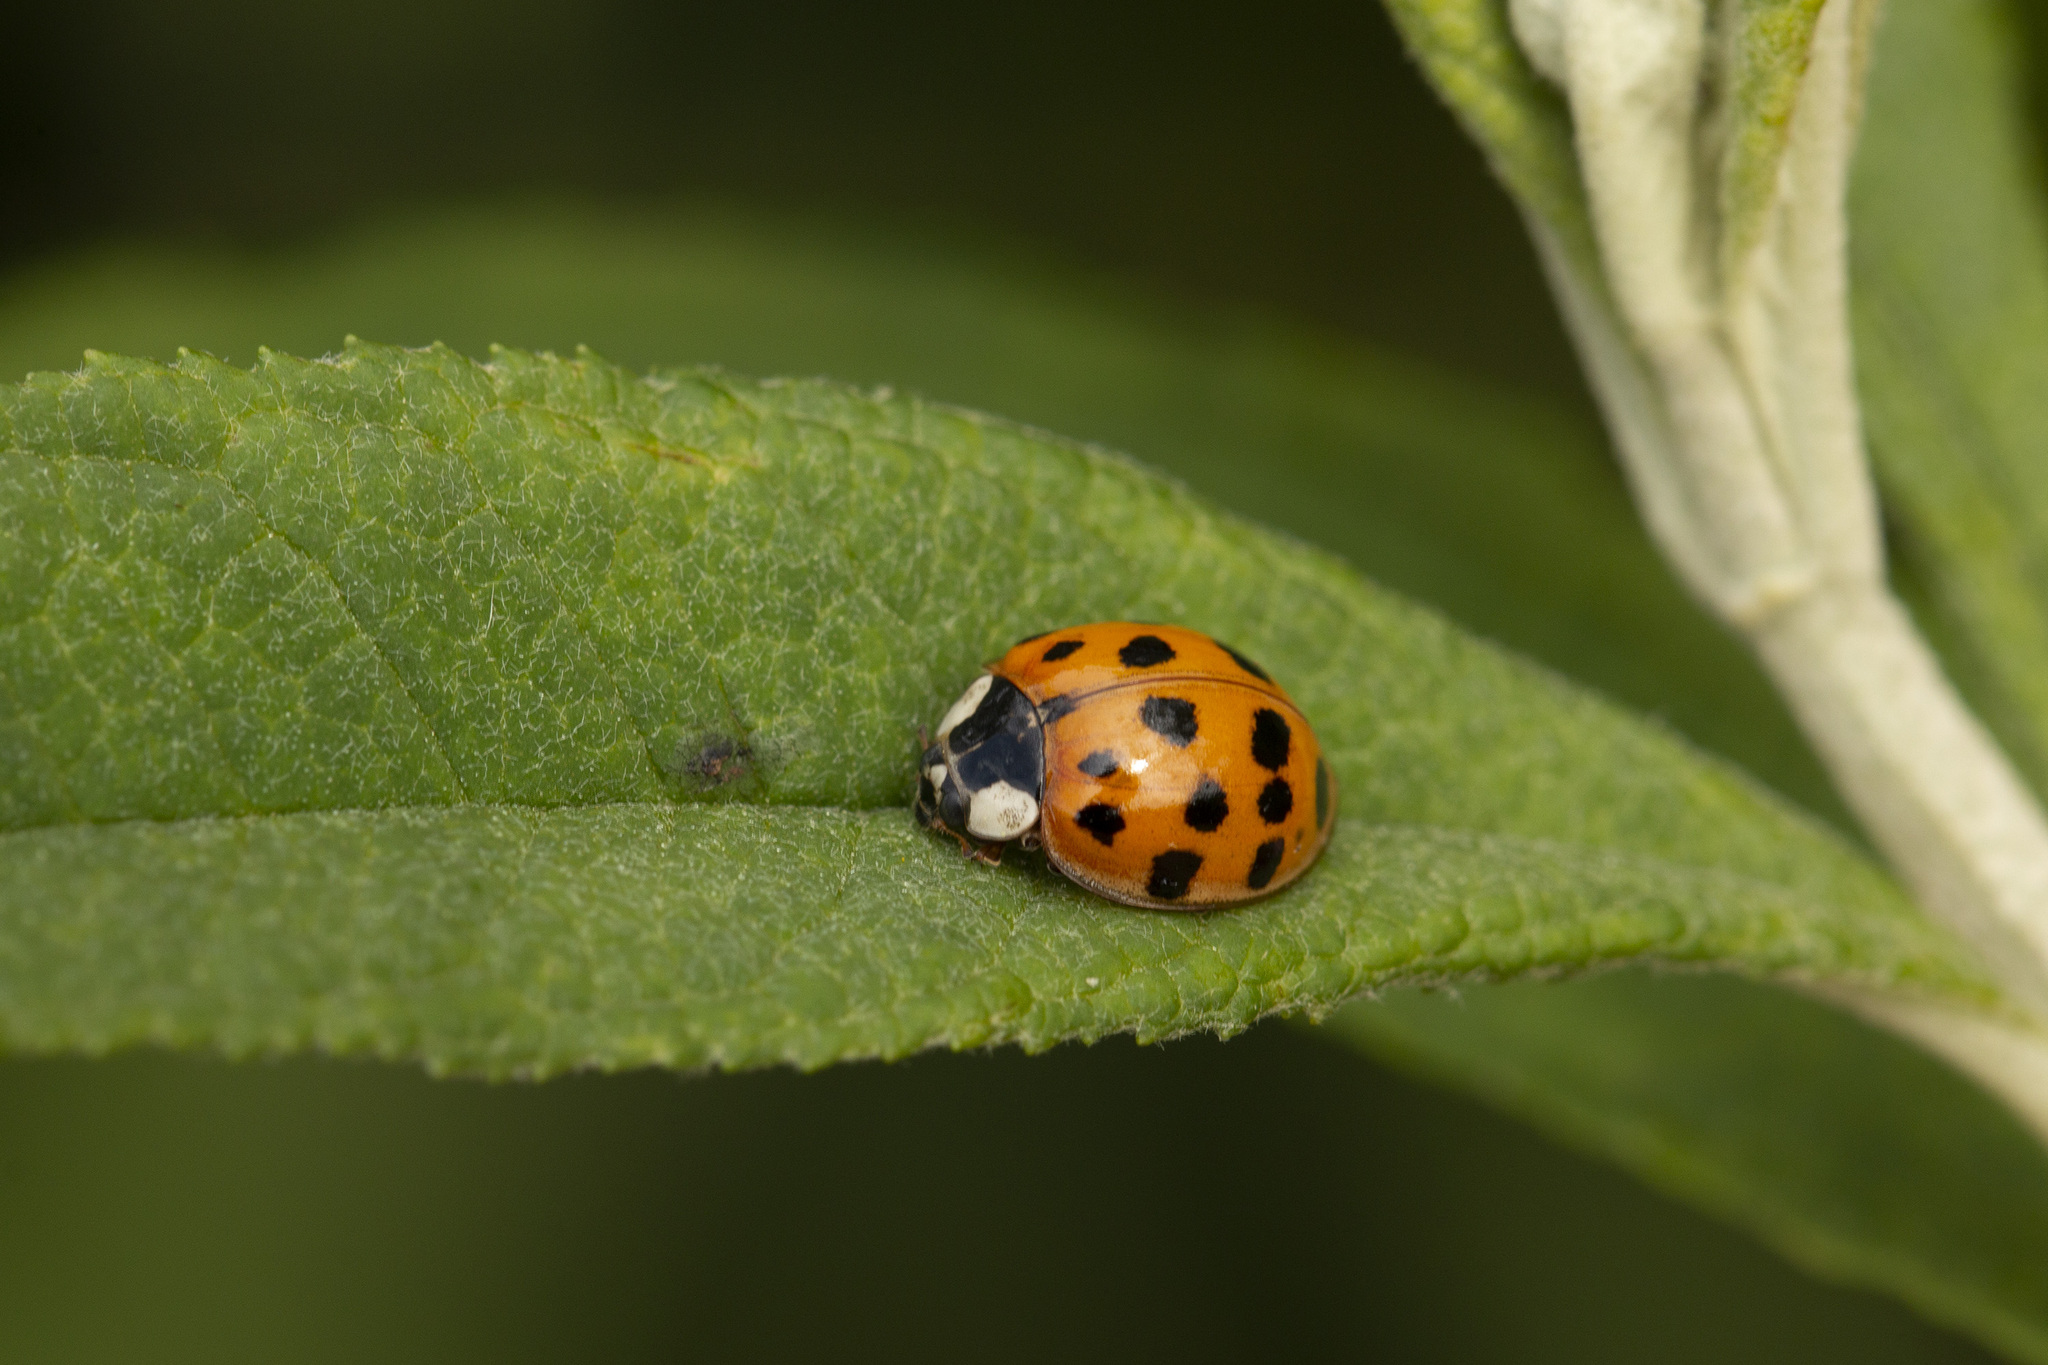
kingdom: Animalia
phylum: Arthropoda
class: Insecta
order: Coleoptera
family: Coccinellidae
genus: Harmonia
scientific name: Harmonia axyridis
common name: Harlequin ladybird
